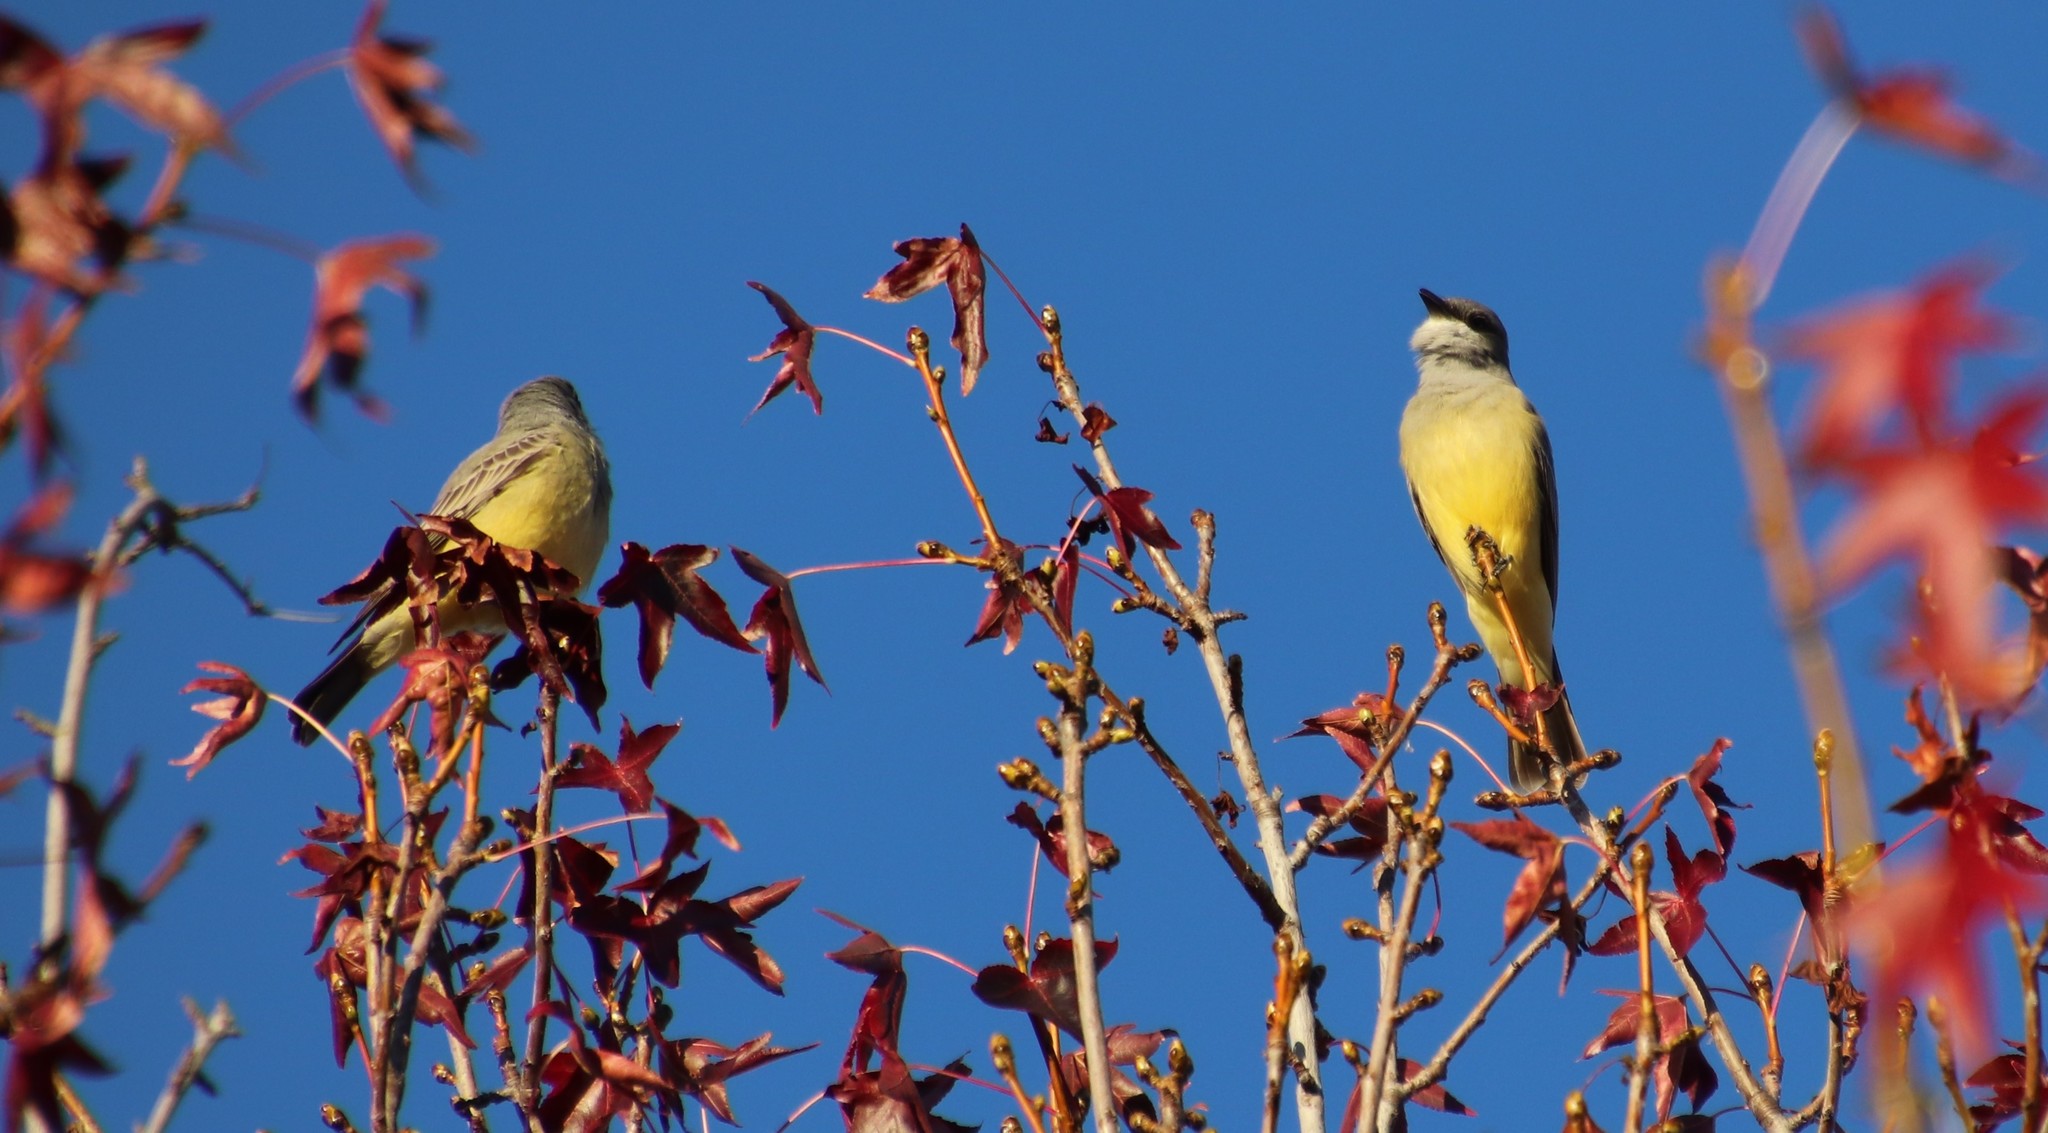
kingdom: Animalia
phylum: Chordata
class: Aves
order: Passeriformes
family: Tyrannidae
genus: Tyrannus
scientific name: Tyrannus vociferans
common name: Cassin's kingbird
